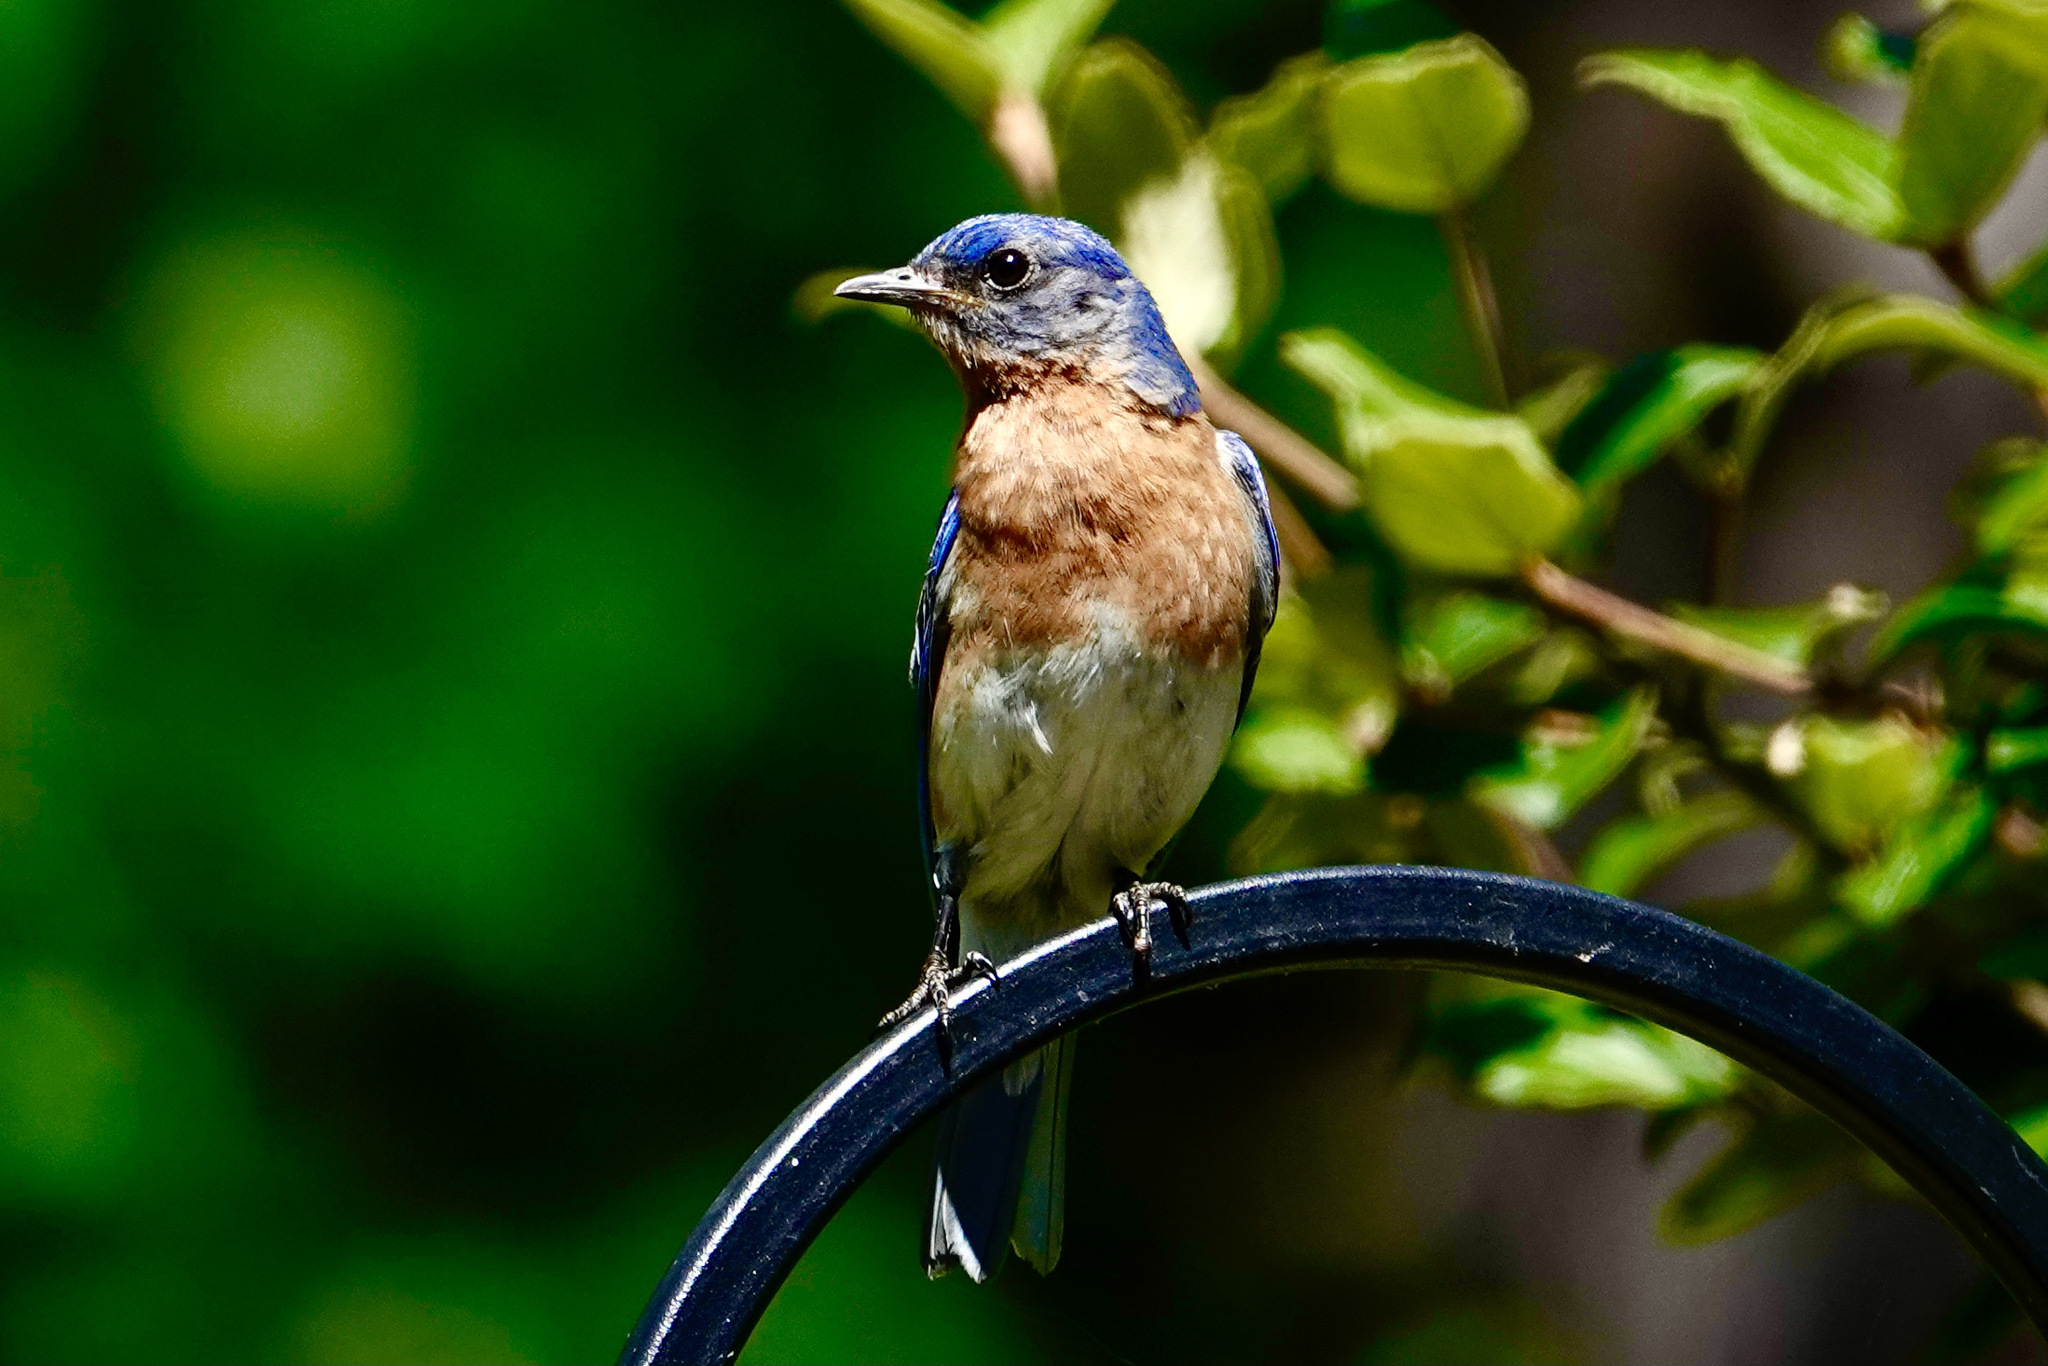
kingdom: Animalia
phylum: Chordata
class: Aves
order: Passeriformes
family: Turdidae
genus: Sialia
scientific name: Sialia sialis
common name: Eastern bluebird
